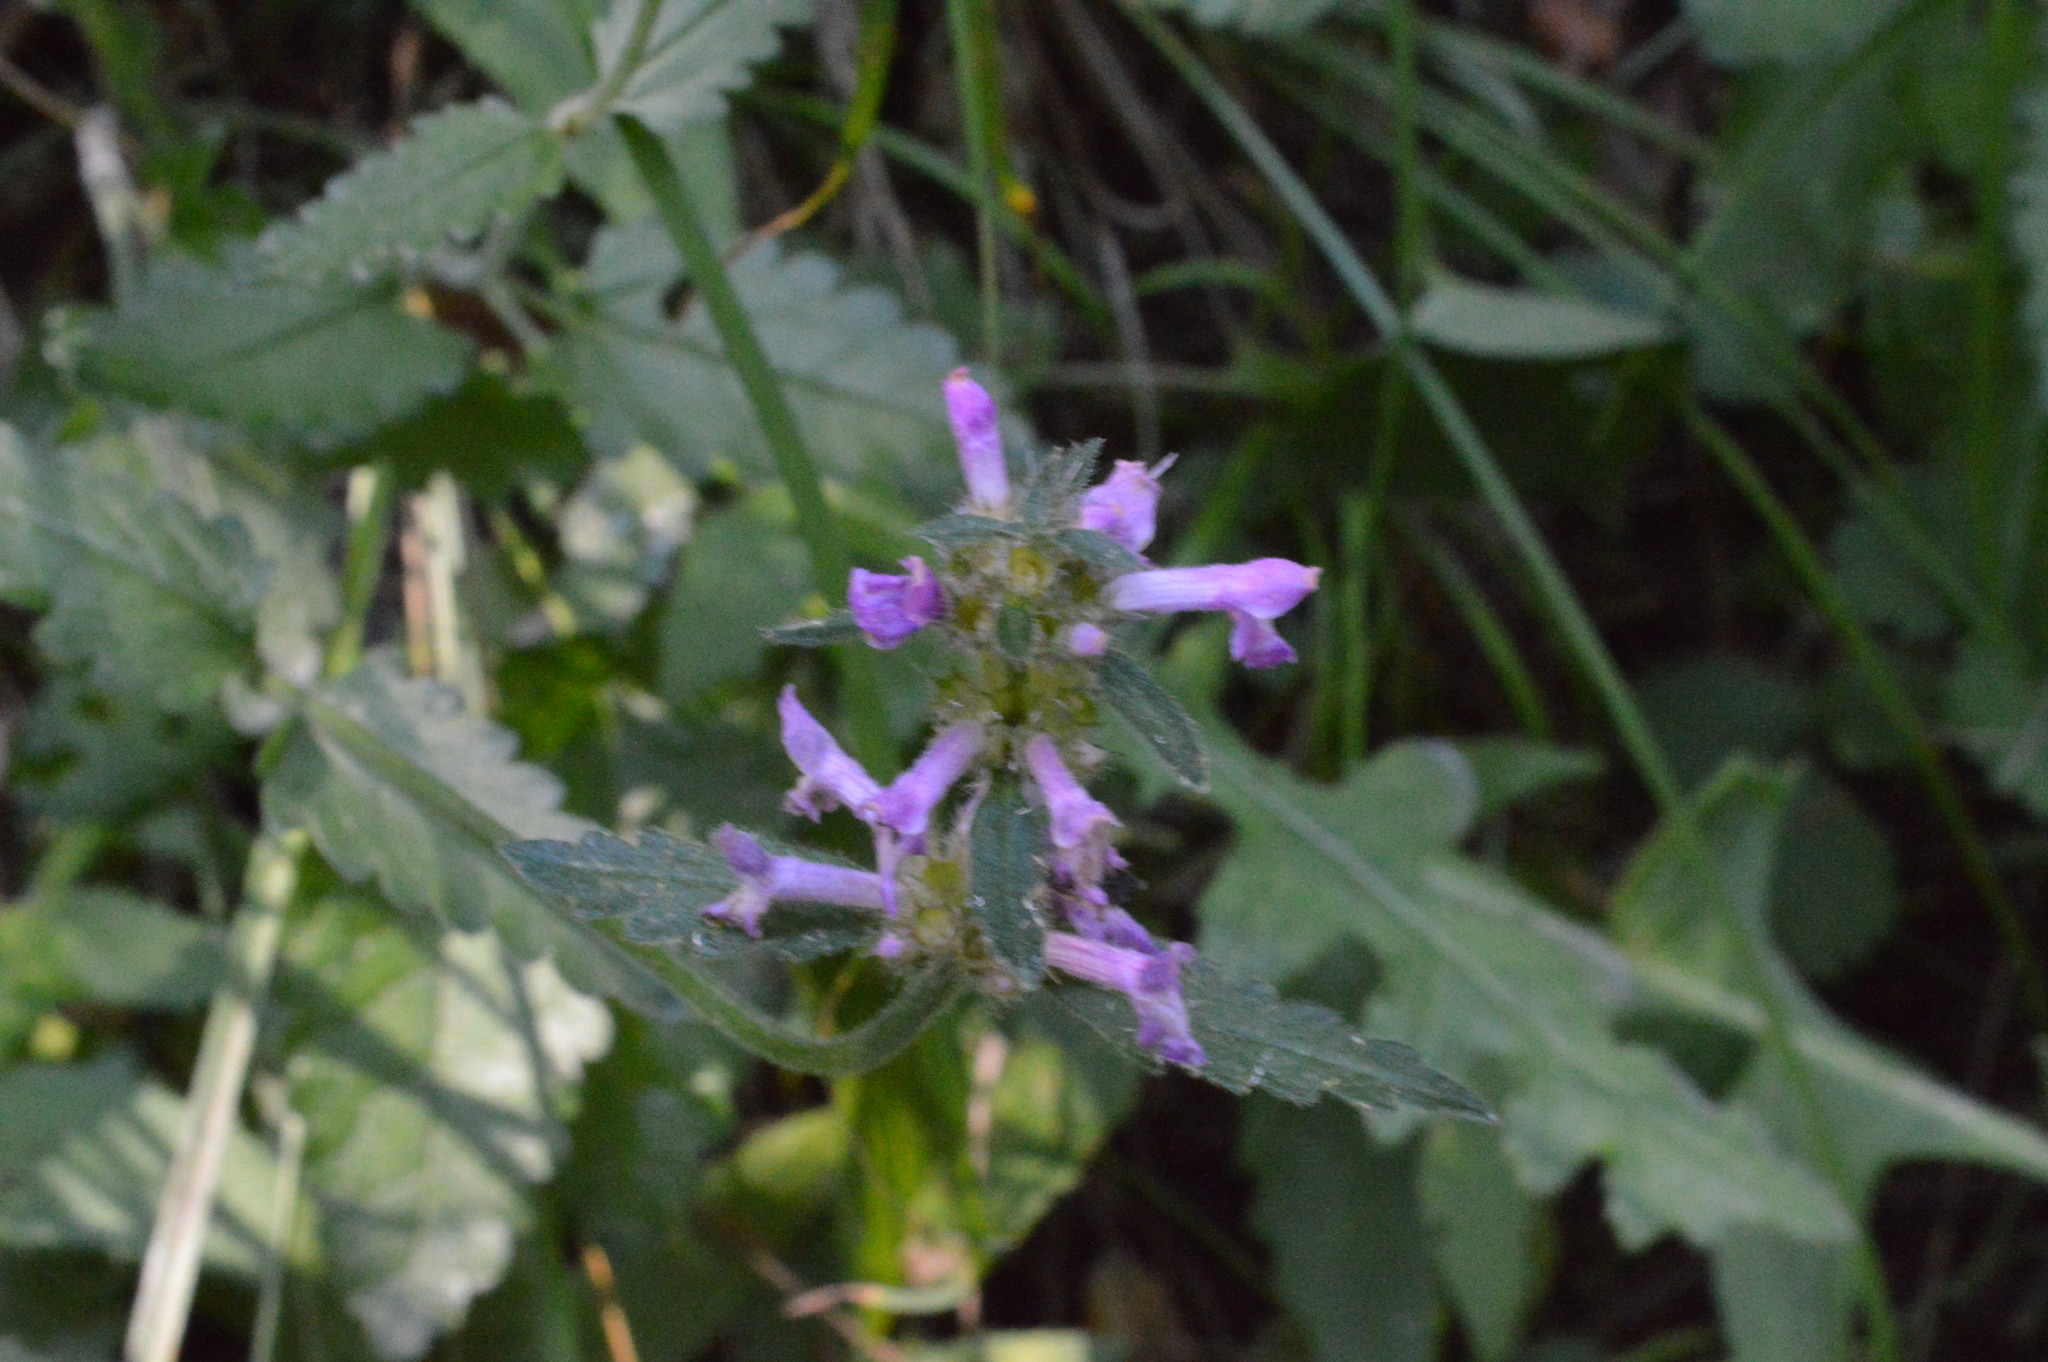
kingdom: Plantae
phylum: Tracheophyta
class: Magnoliopsida
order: Lamiales
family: Lamiaceae
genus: Betonica
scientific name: Betonica officinalis
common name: Bishop's-wort
